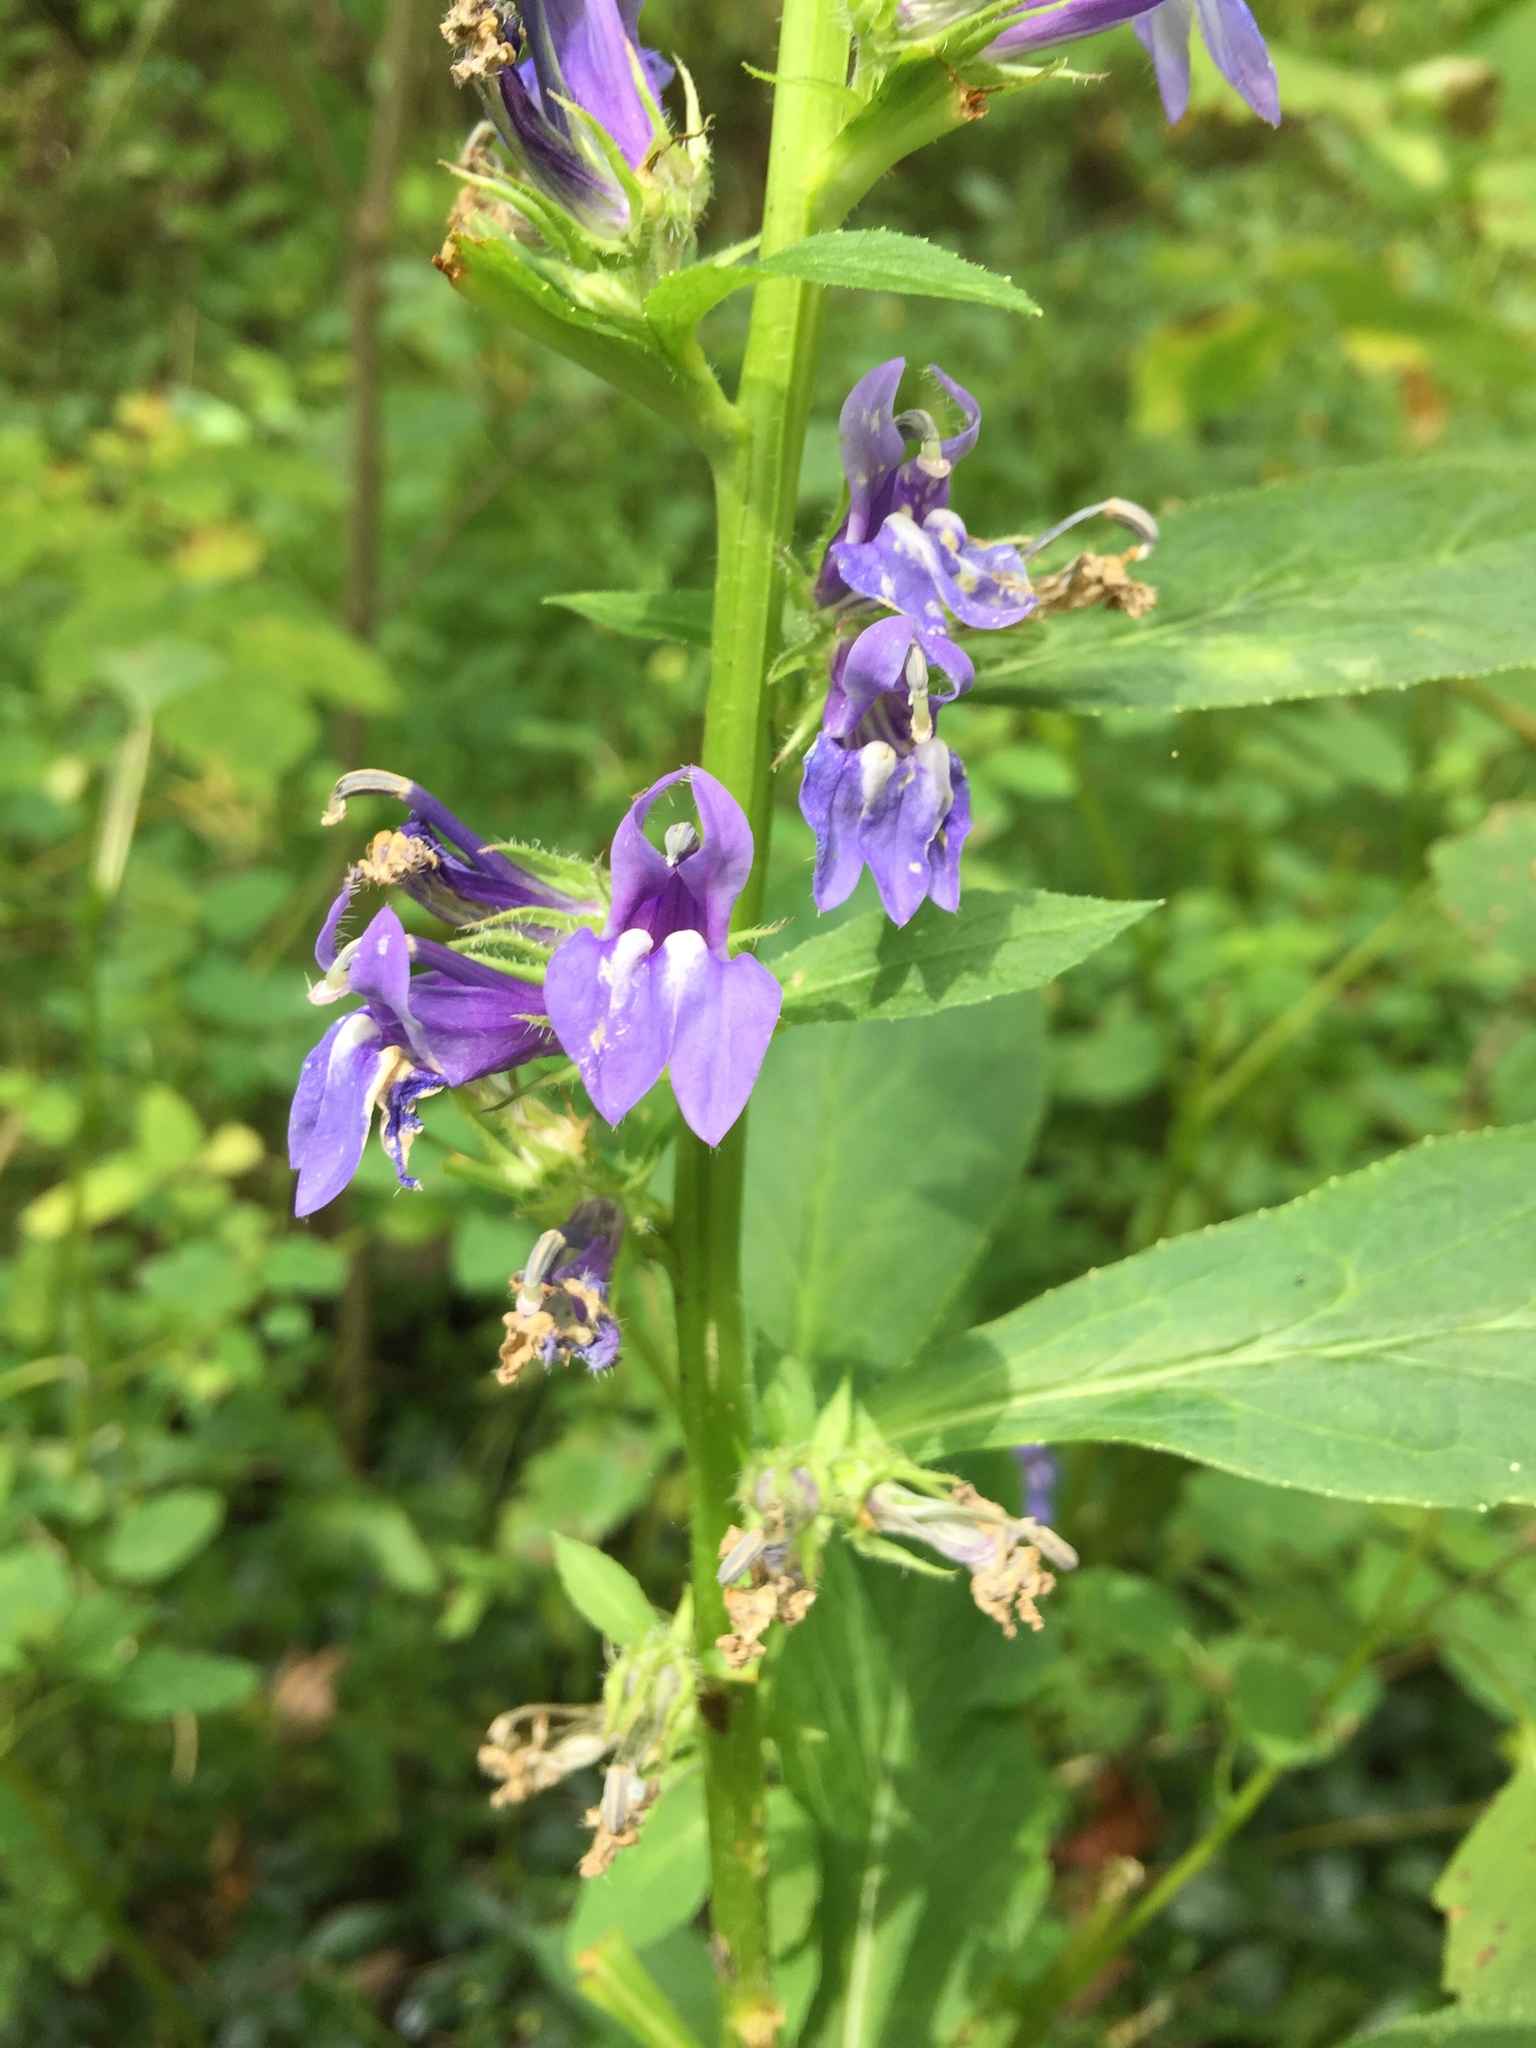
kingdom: Plantae
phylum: Tracheophyta
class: Magnoliopsida
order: Asterales
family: Campanulaceae
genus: Lobelia
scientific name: Lobelia siphilitica
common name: Great lobelia
